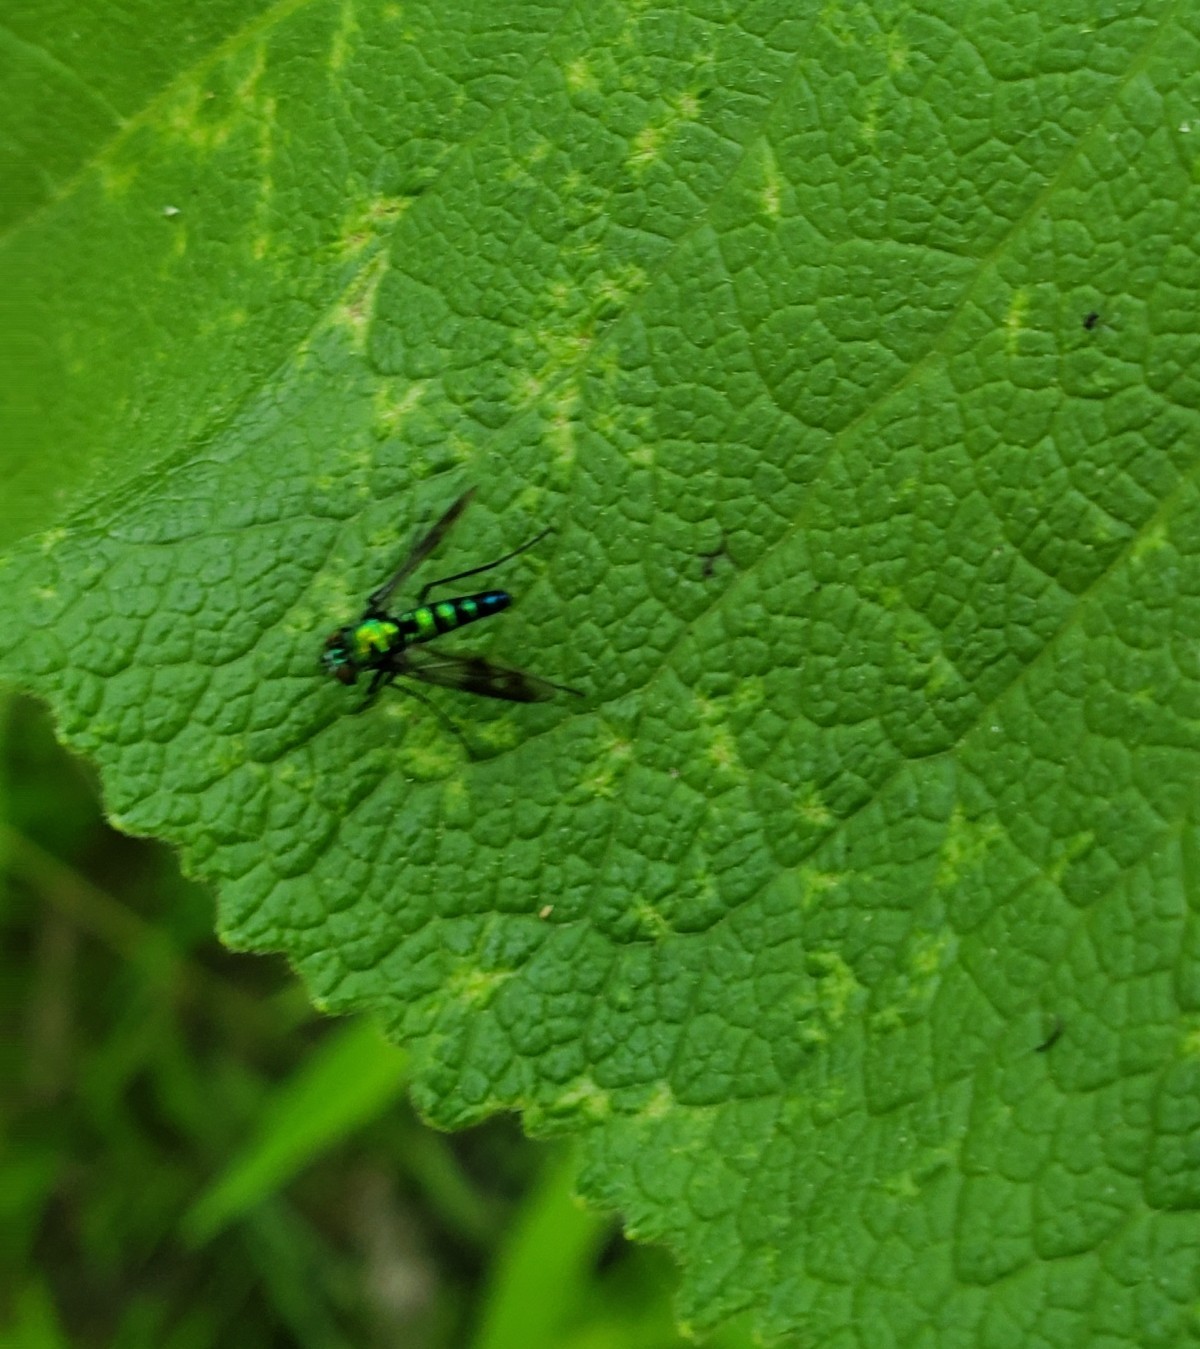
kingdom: Animalia
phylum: Arthropoda
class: Insecta
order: Diptera
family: Dolichopodidae
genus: Condylostylus
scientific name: Condylostylus patibulatus
